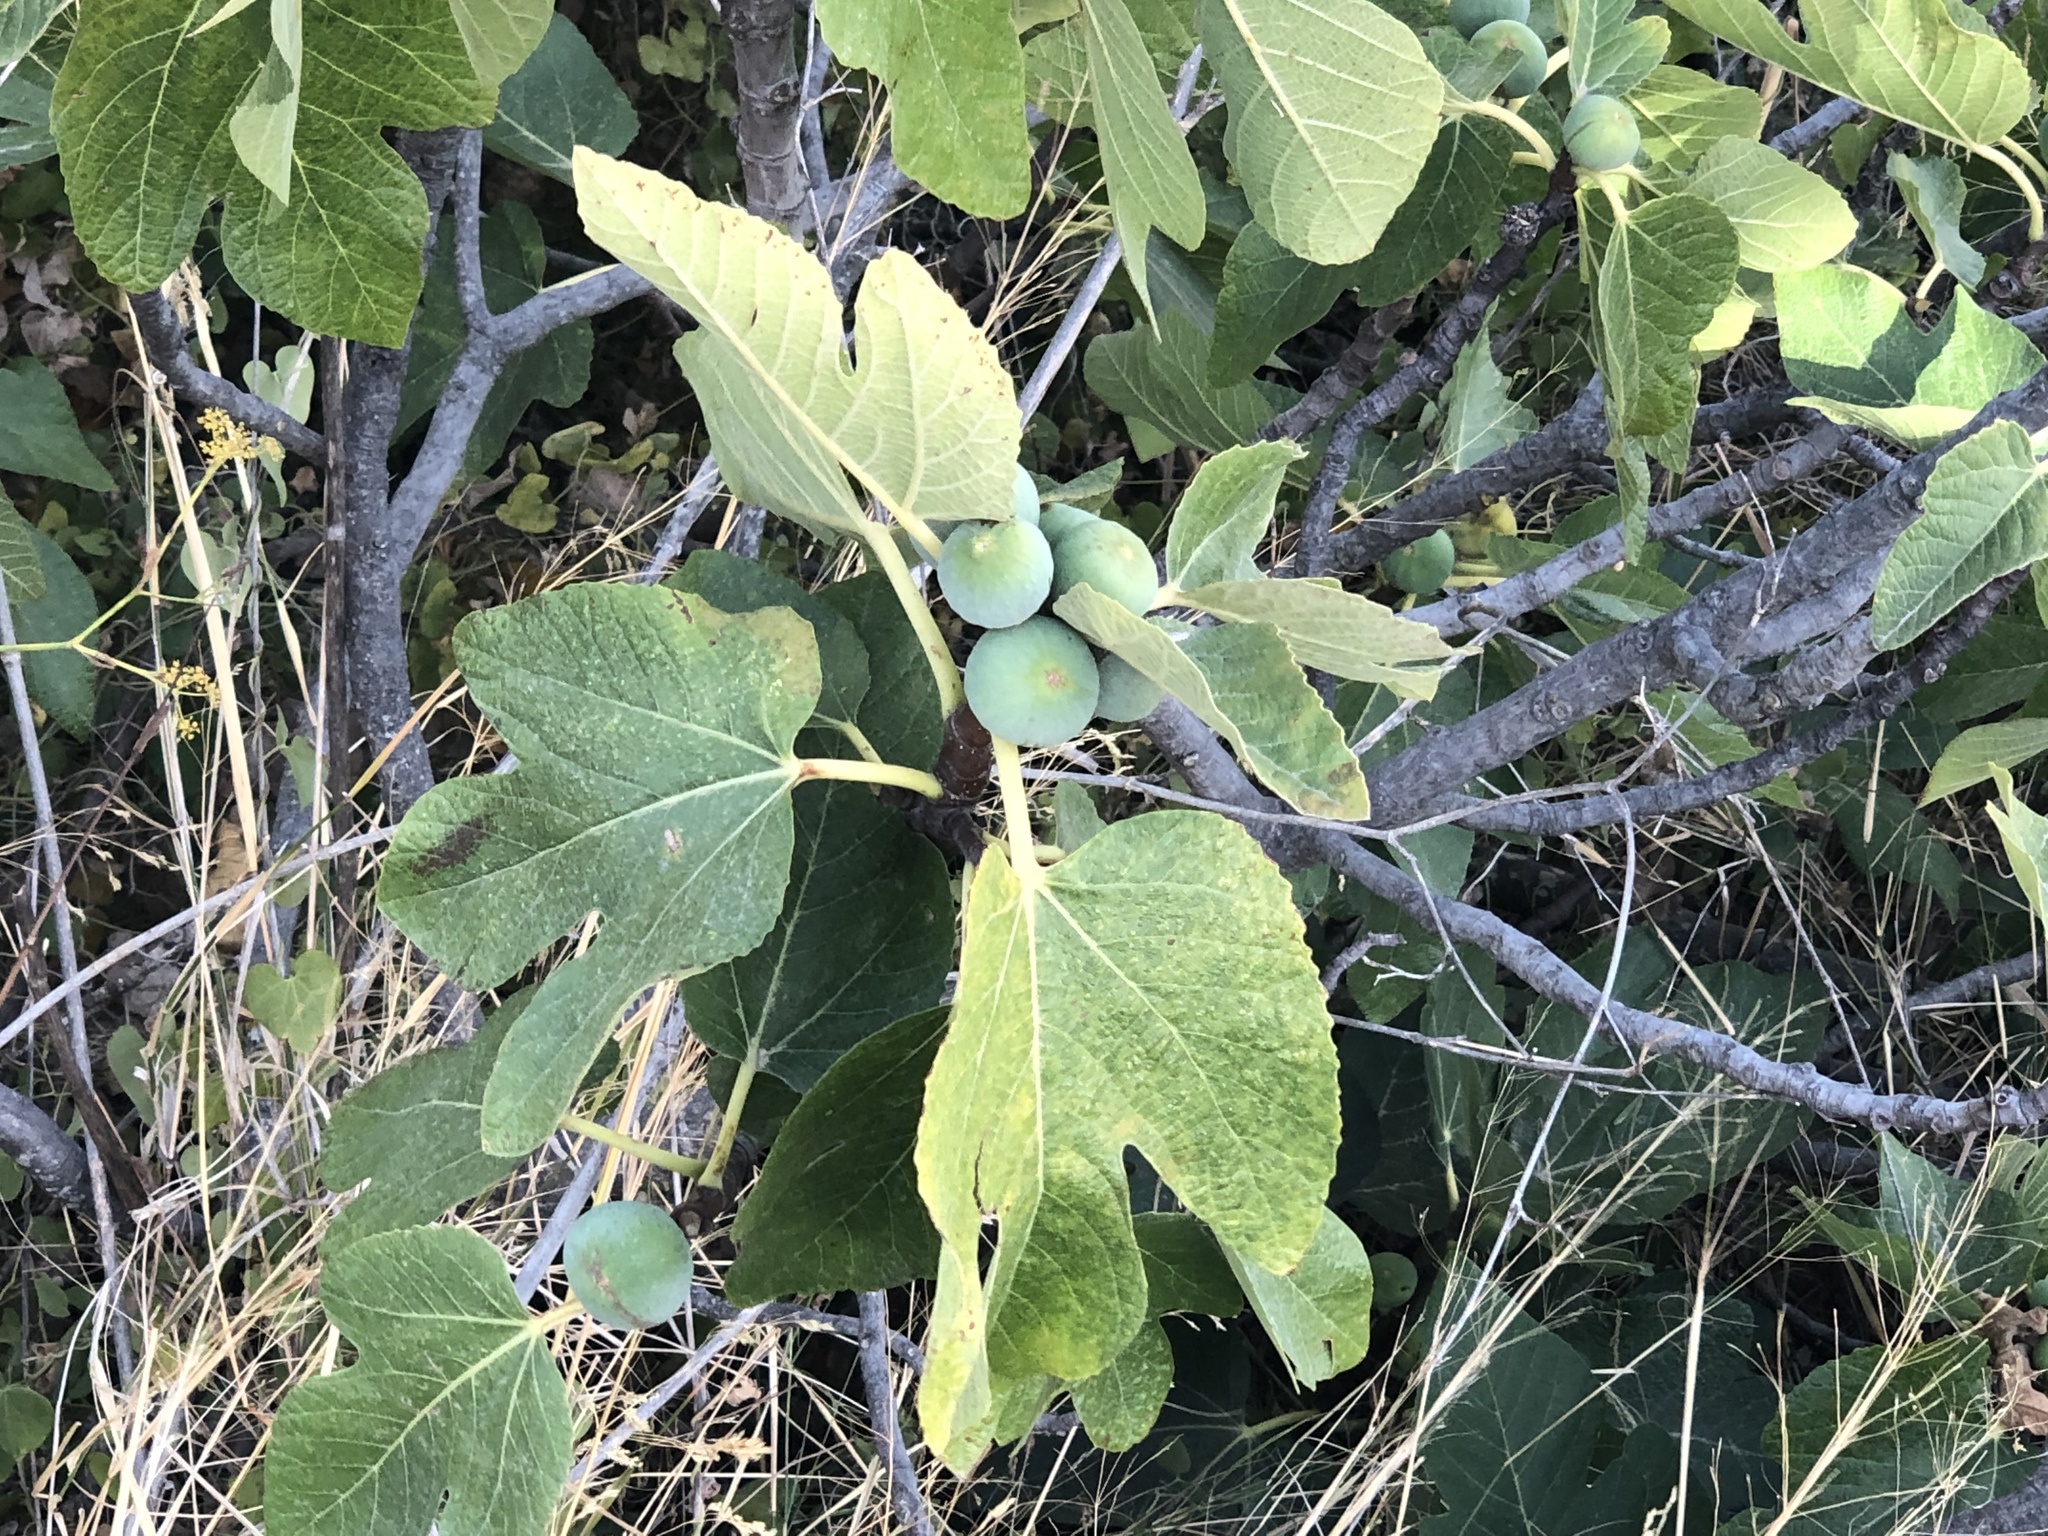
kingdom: Plantae
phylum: Tracheophyta
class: Magnoliopsida
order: Rosales
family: Moraceae
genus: Ficus
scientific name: Ficus carica
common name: Fig
